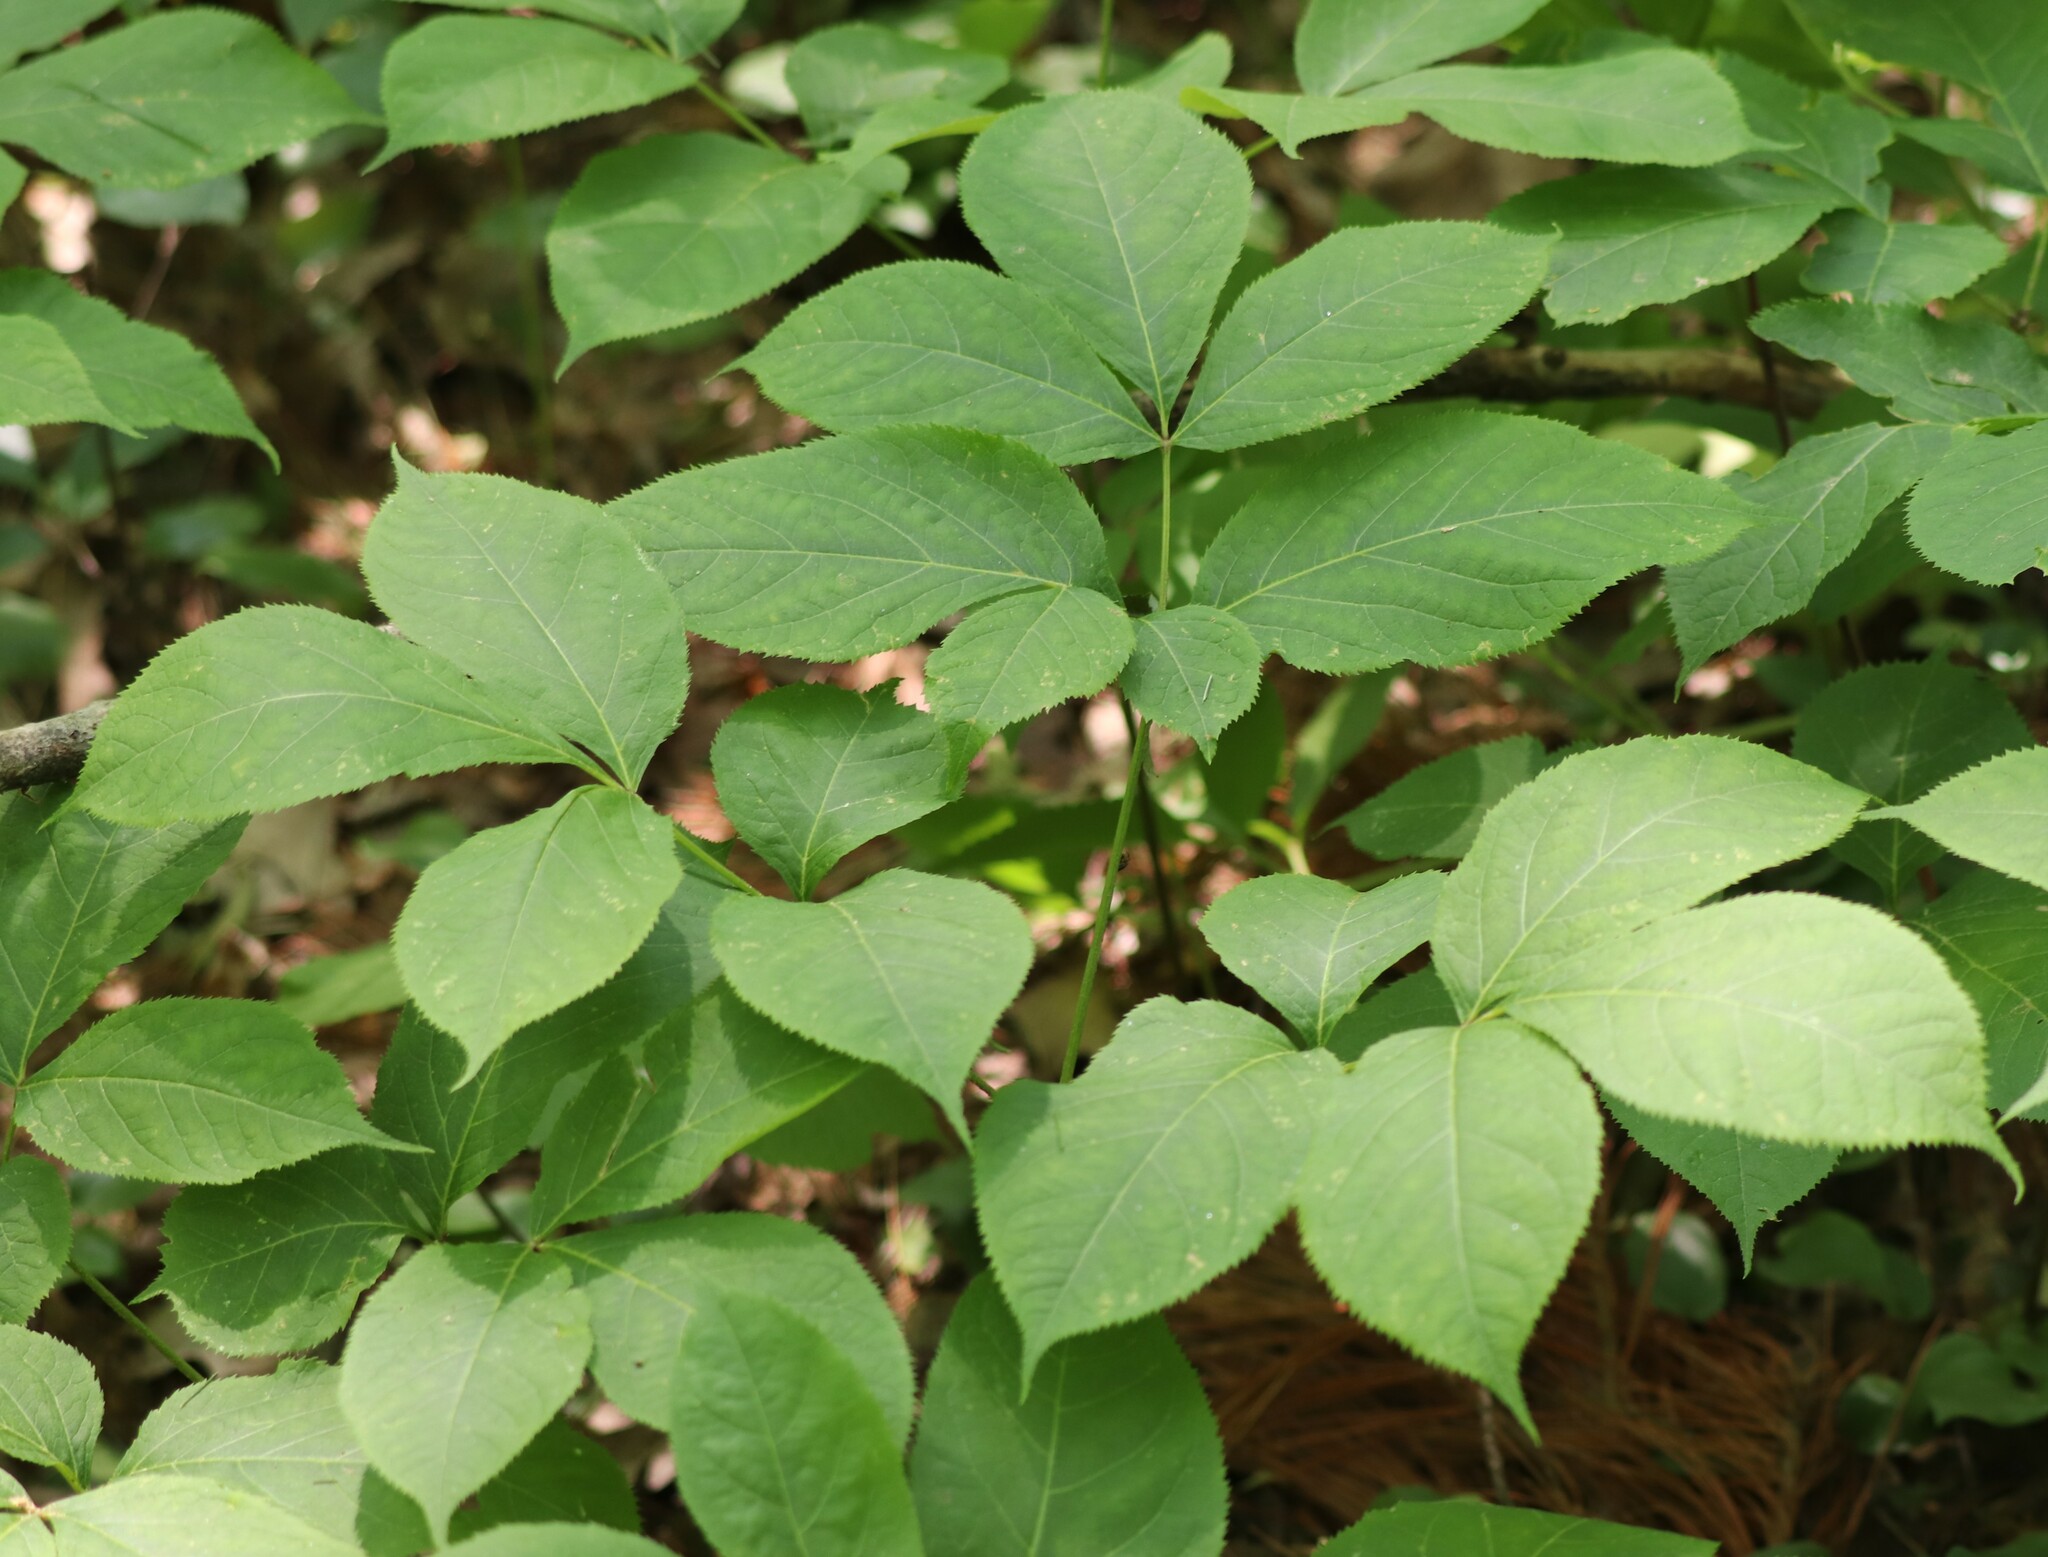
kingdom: Plantae
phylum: Tracheophyta
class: Magnoliopsida
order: Apiales
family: Araliaceae
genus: Aralia
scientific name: Aralia nudicaulis
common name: Wild sarsaparilla
